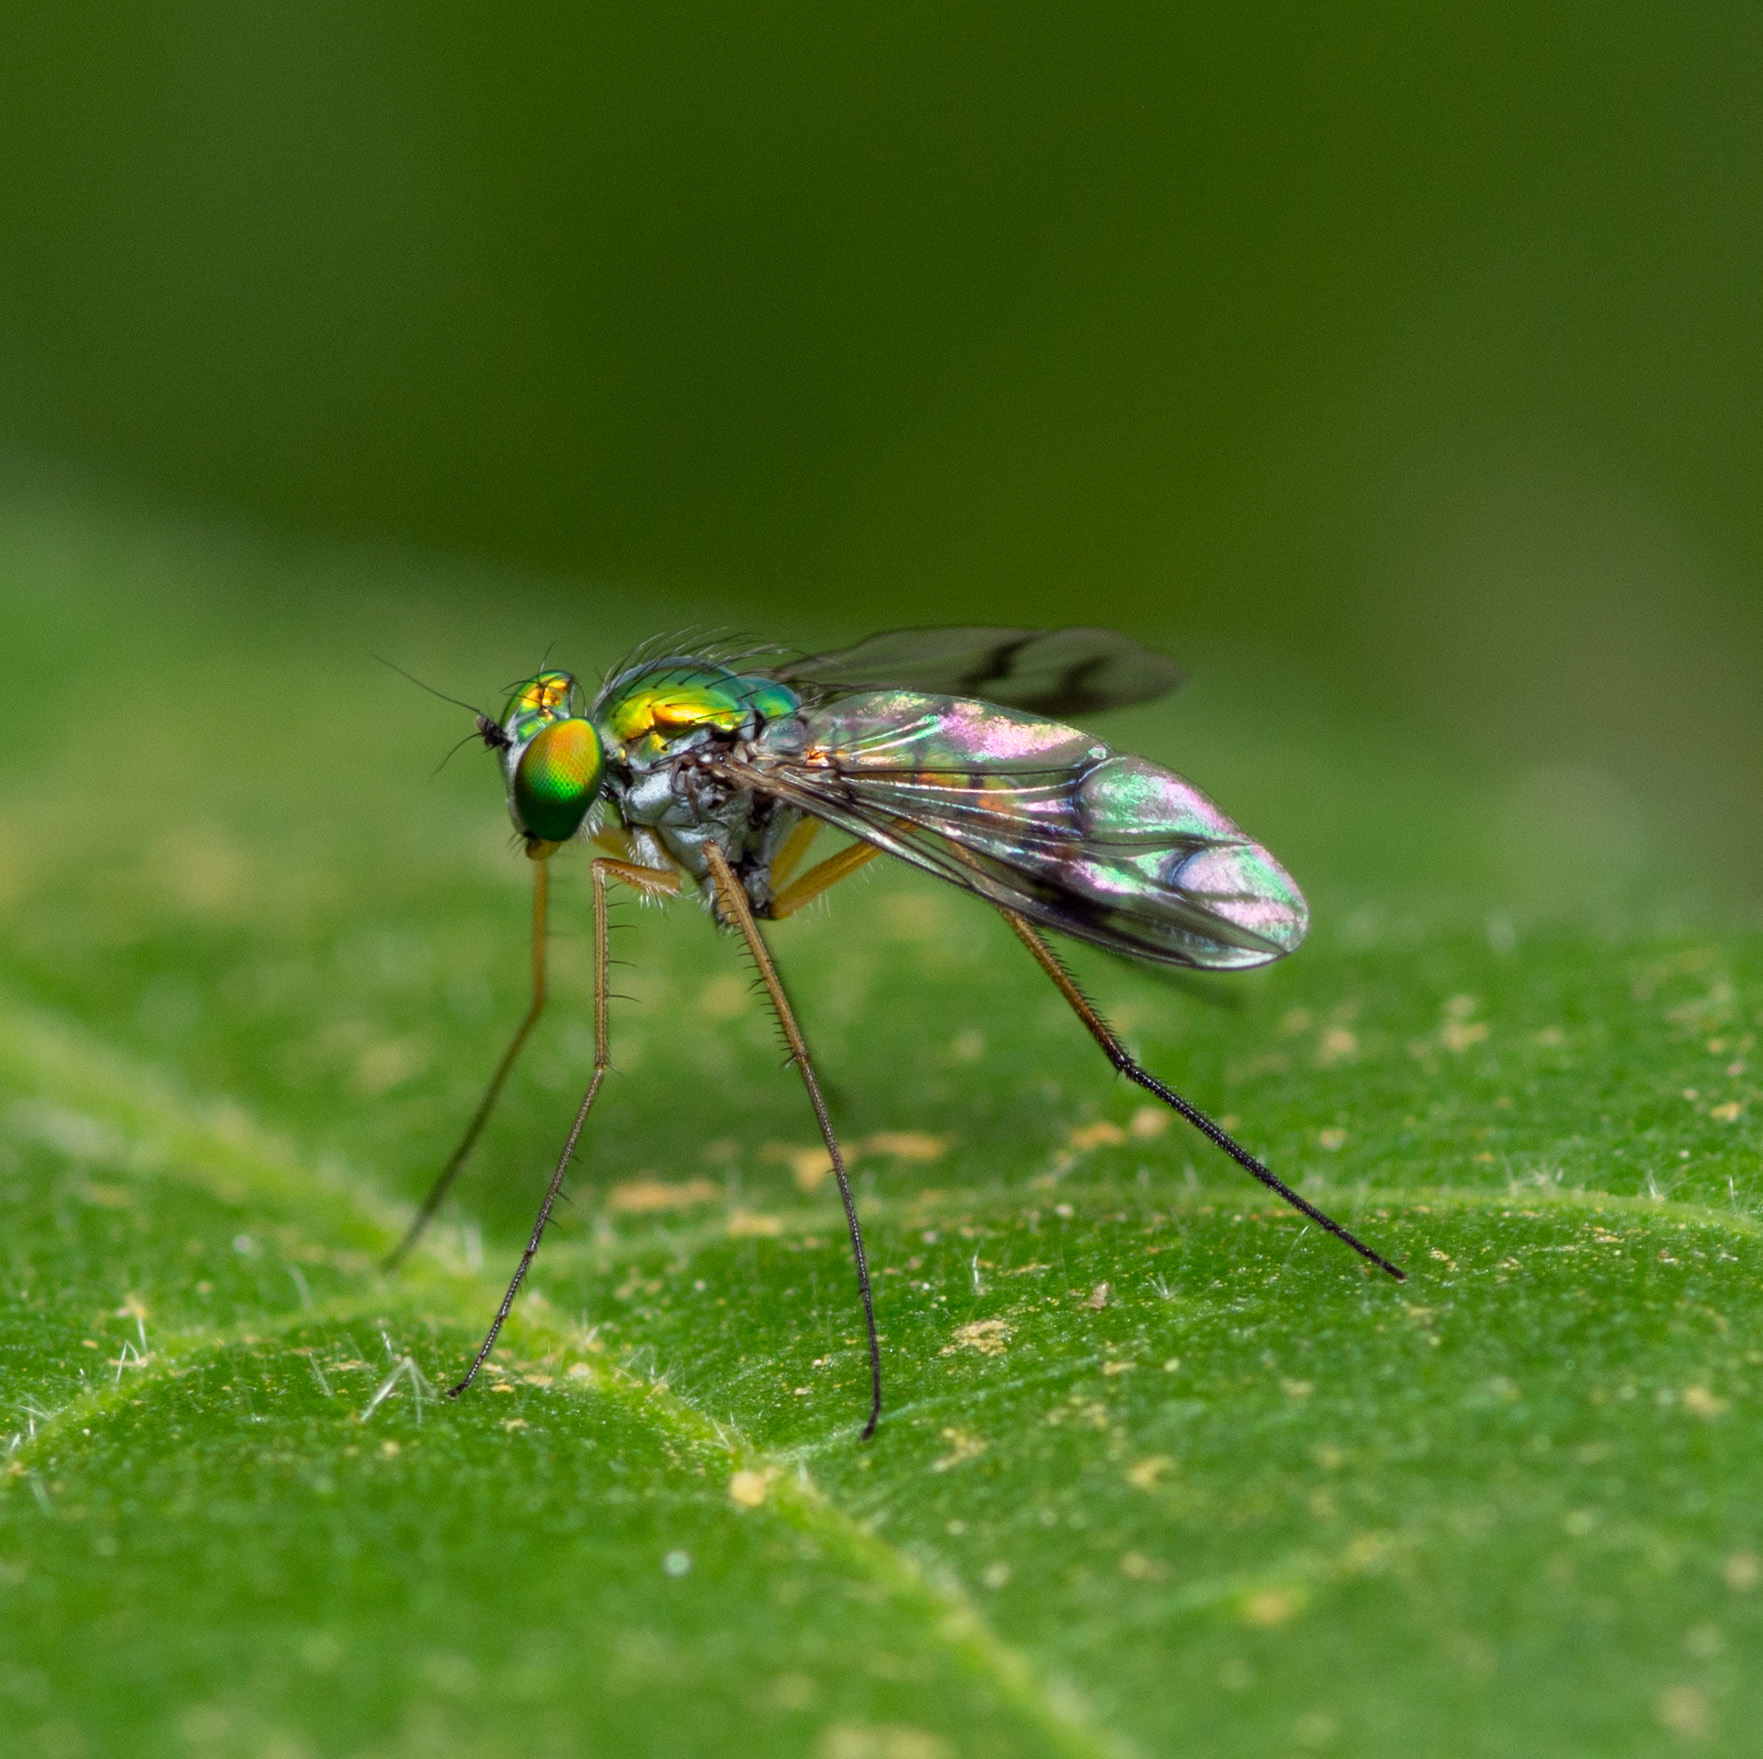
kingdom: Animalia
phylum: Arthropoda
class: Insecta
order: Diptera
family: Dolichopodidae
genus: Condylostylus
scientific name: Condylostylus sipho
